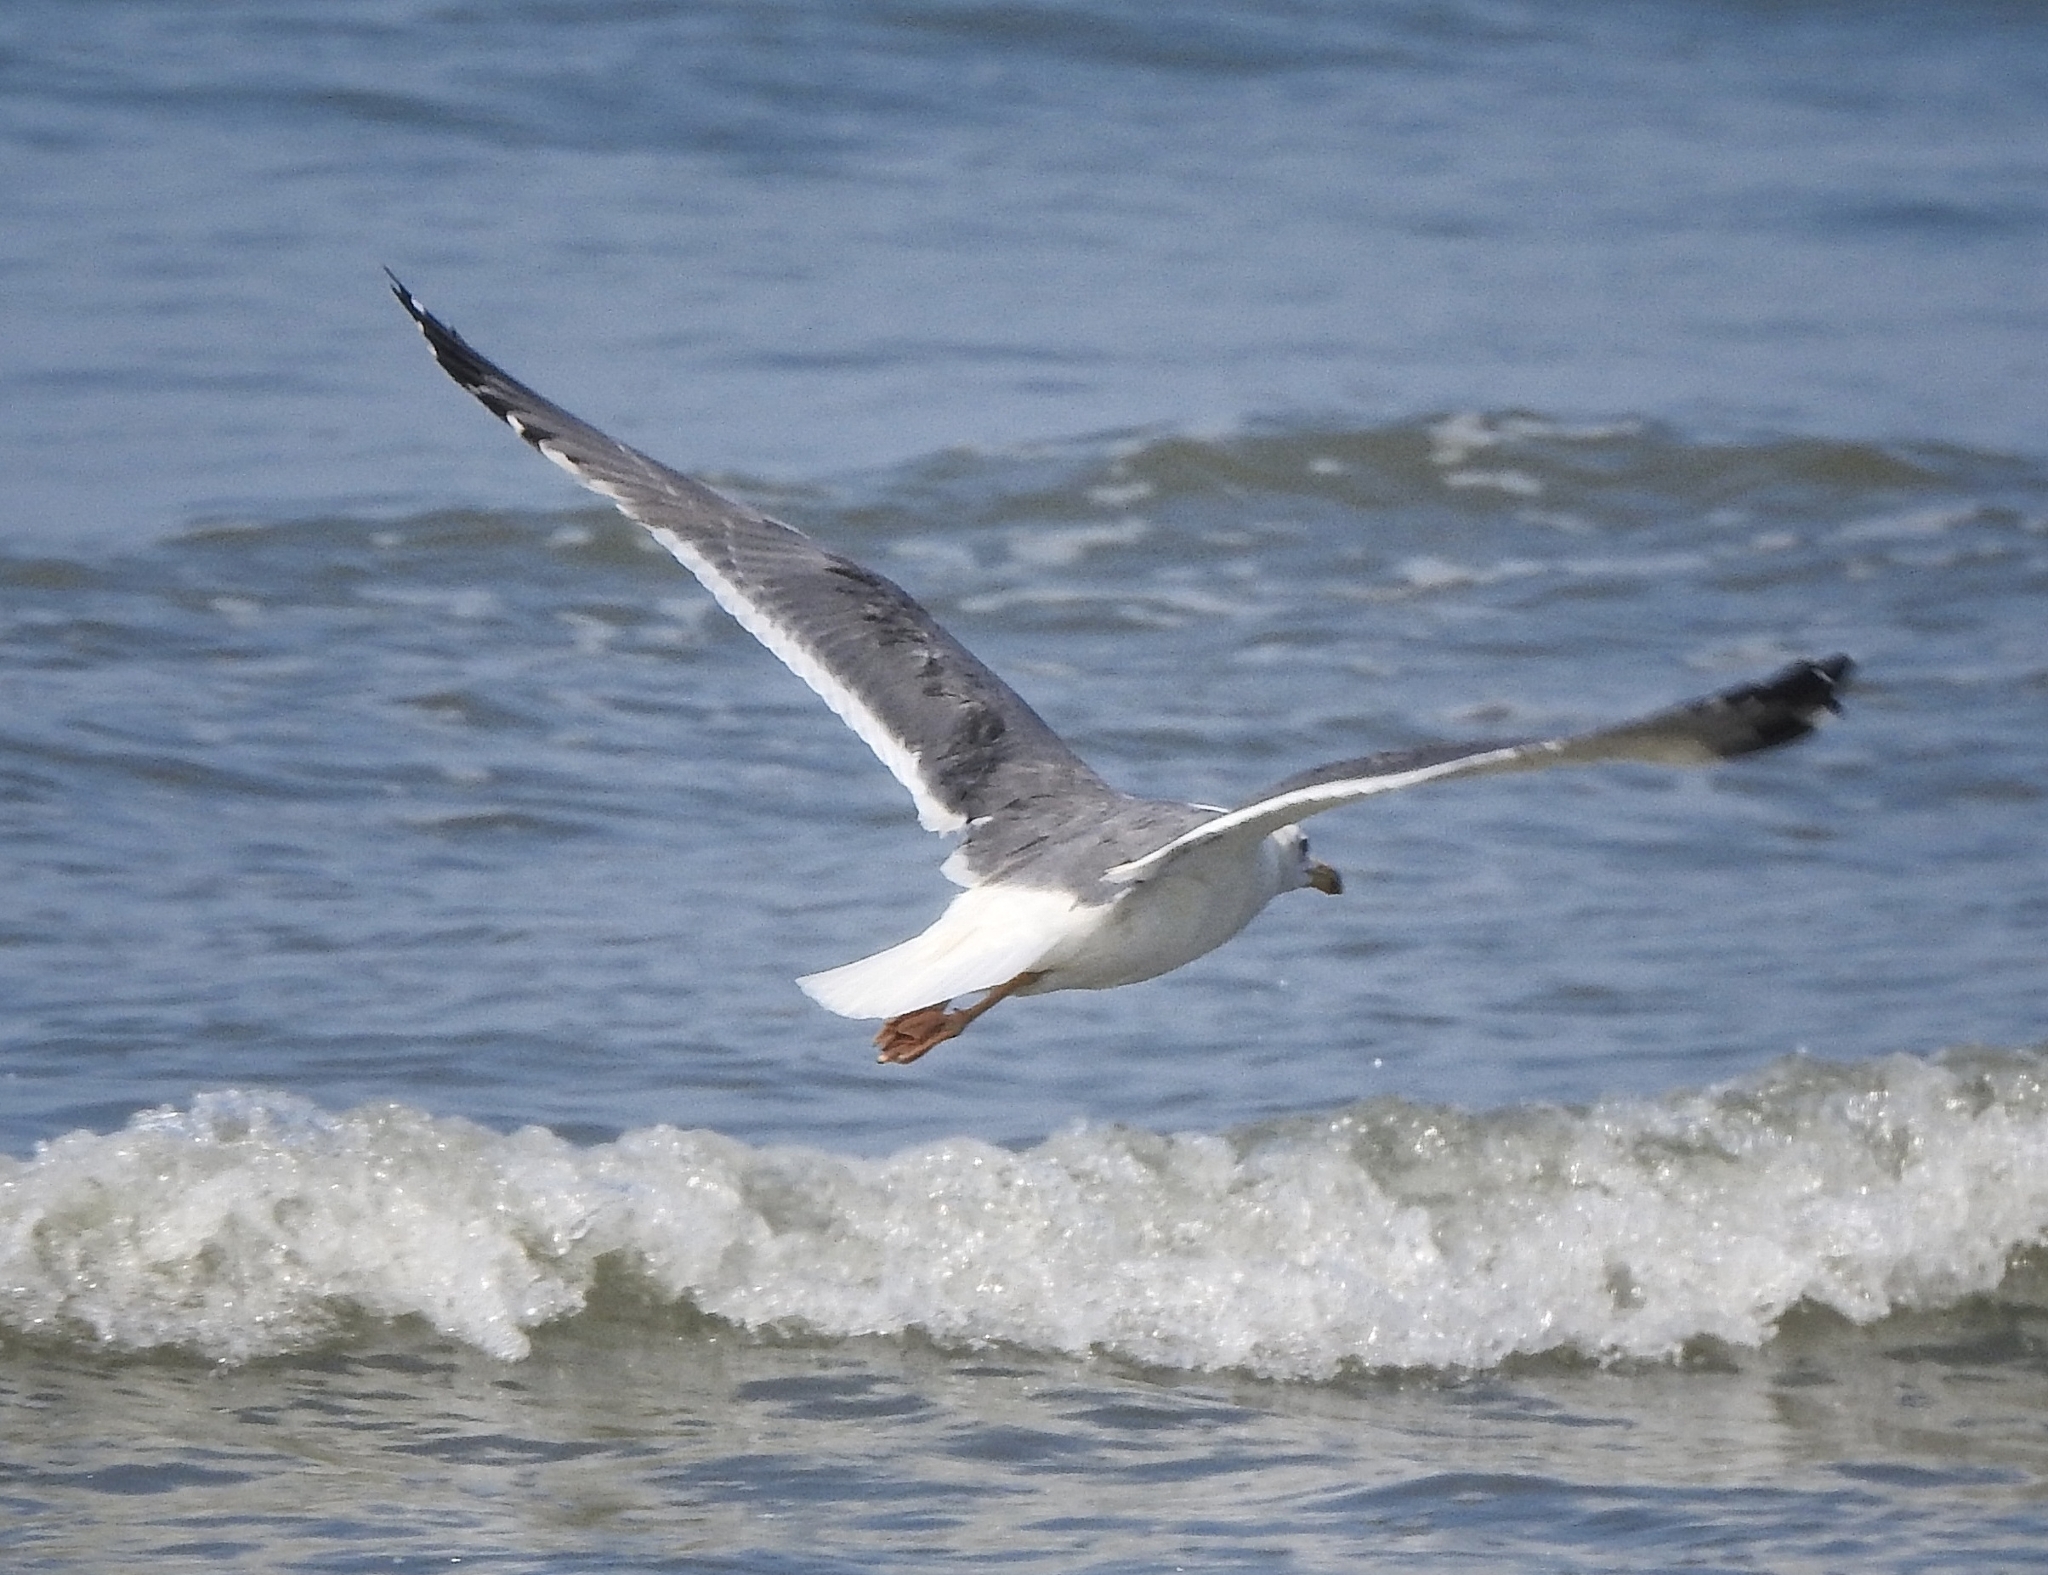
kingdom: Animalia
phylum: Chordata
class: Aves
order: Charadriiformes
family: Laridae
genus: Larus
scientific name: Larus fuscus
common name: Lesser black-backed gull
